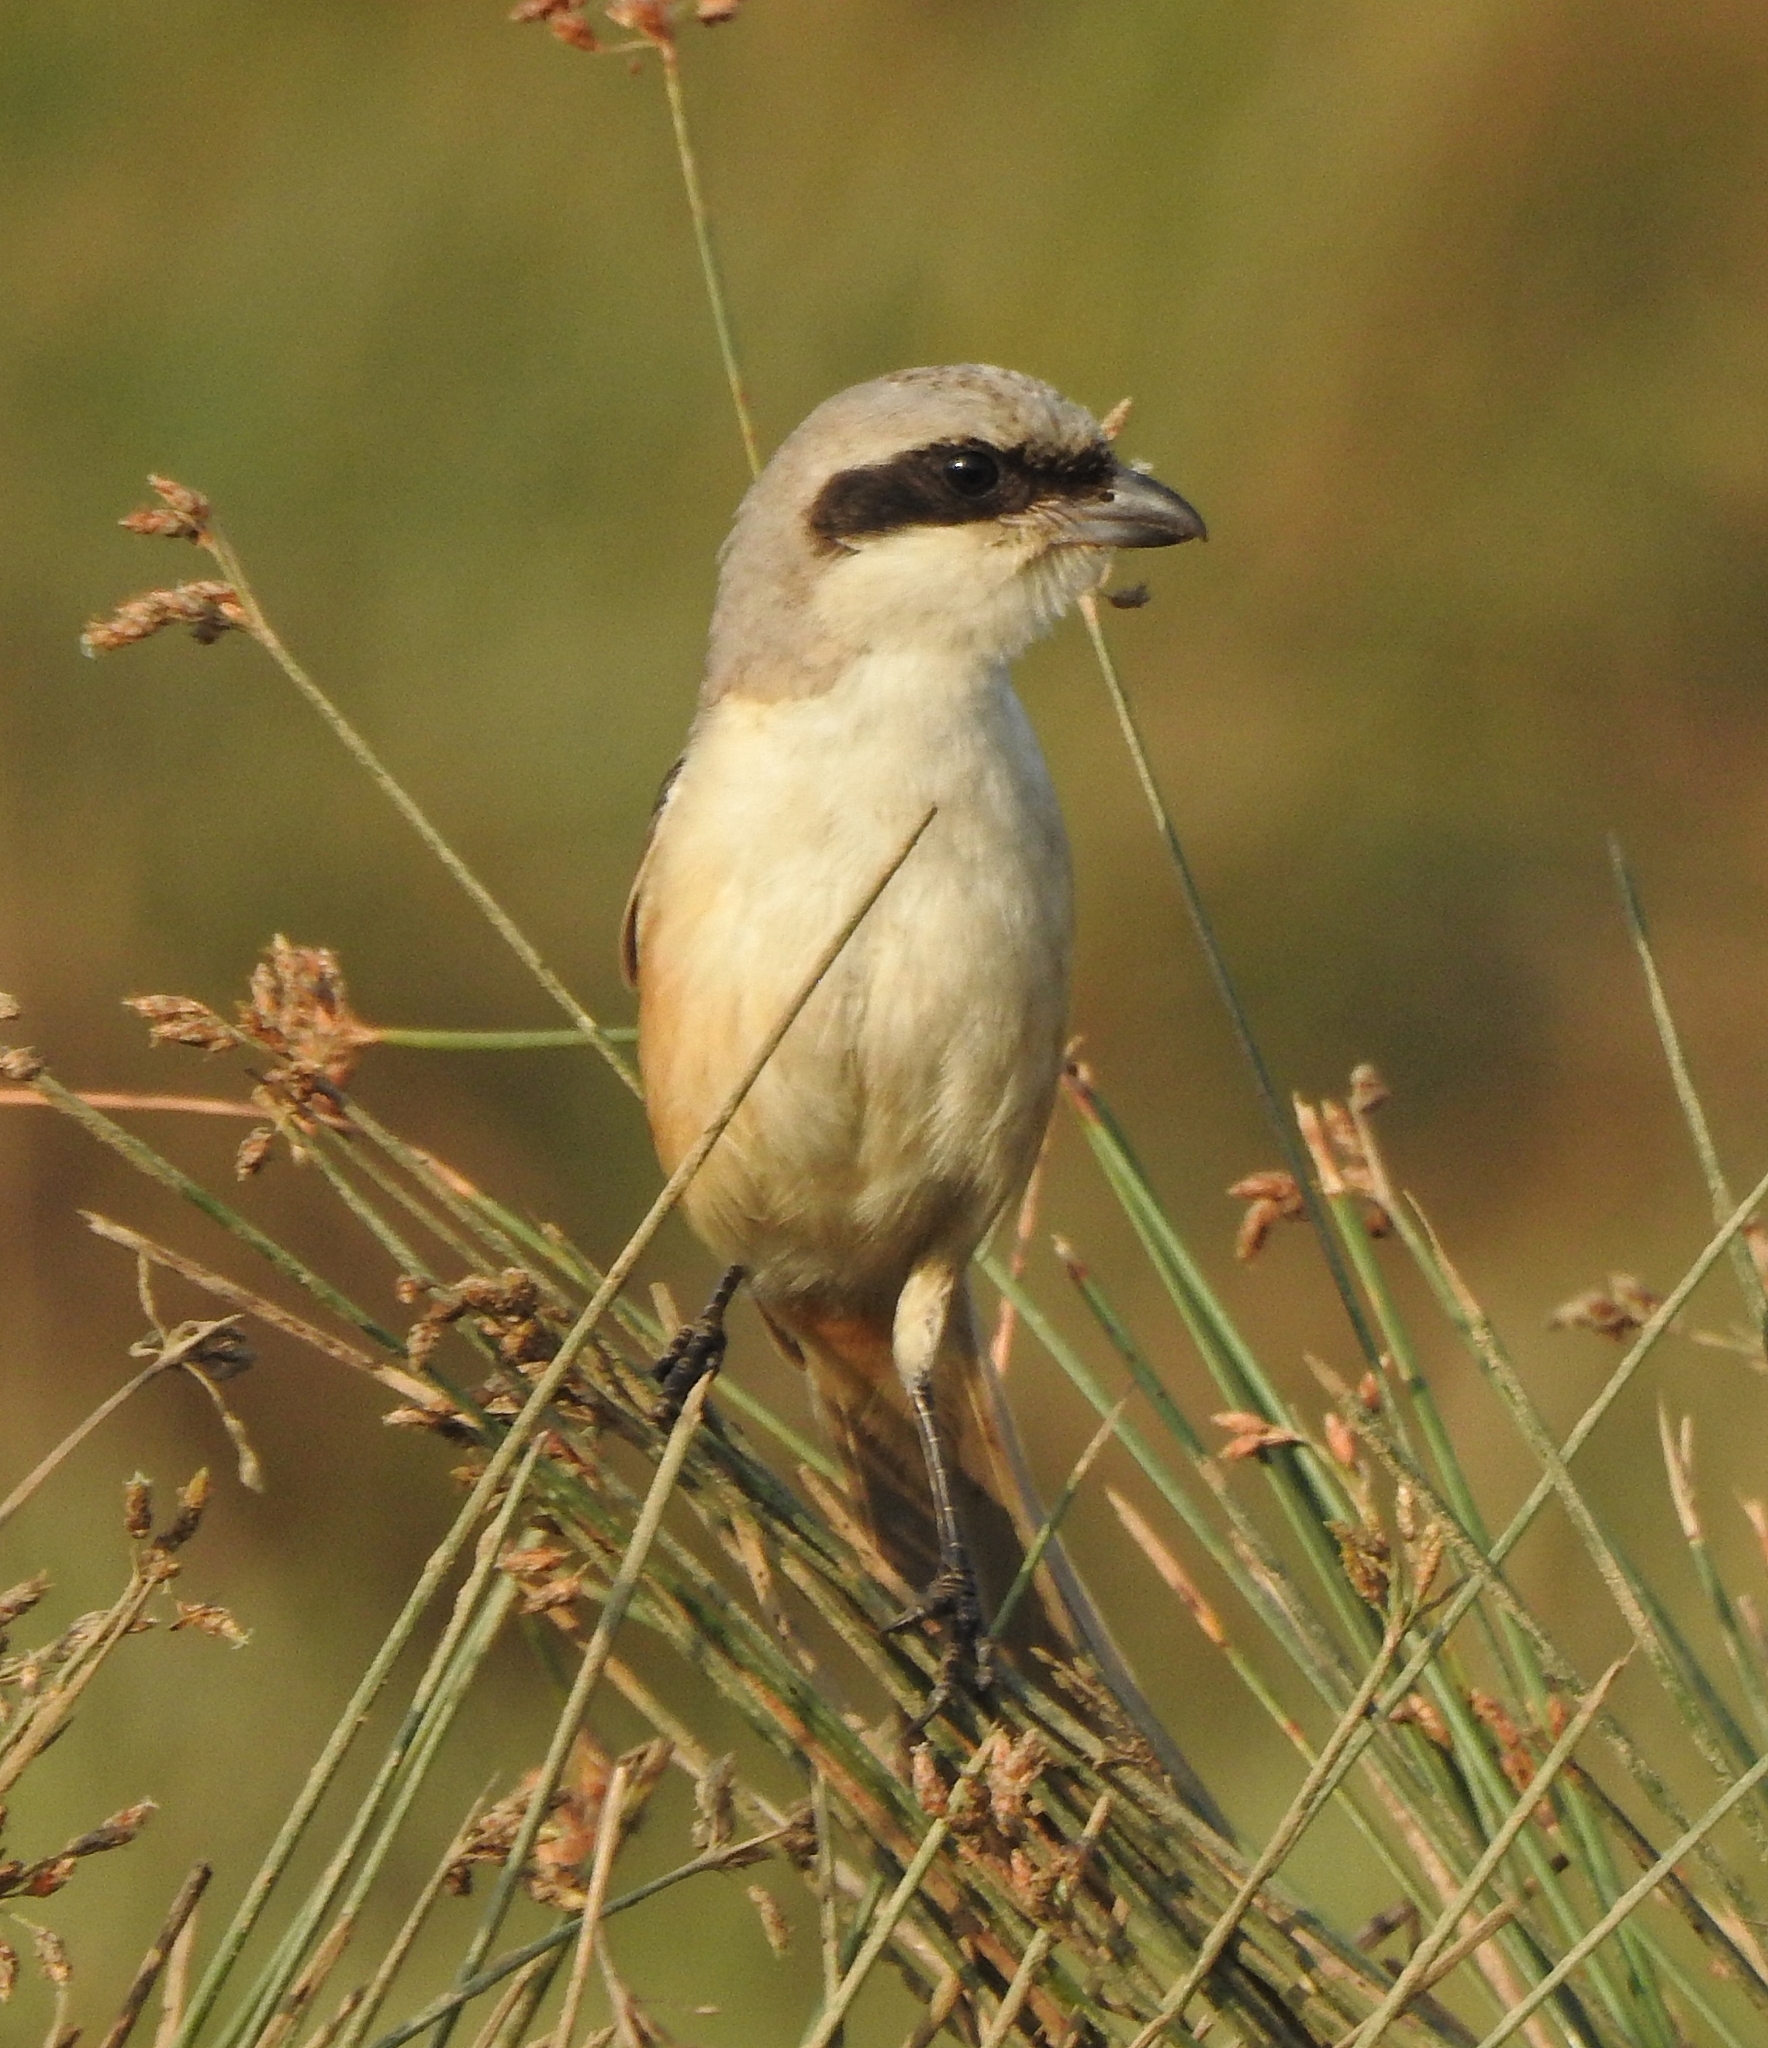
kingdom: Animalia
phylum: Chordata
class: Aves
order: Passeriformes
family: Laniidae
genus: Lanius
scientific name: Lanius schach
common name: Long-tailed shrike
